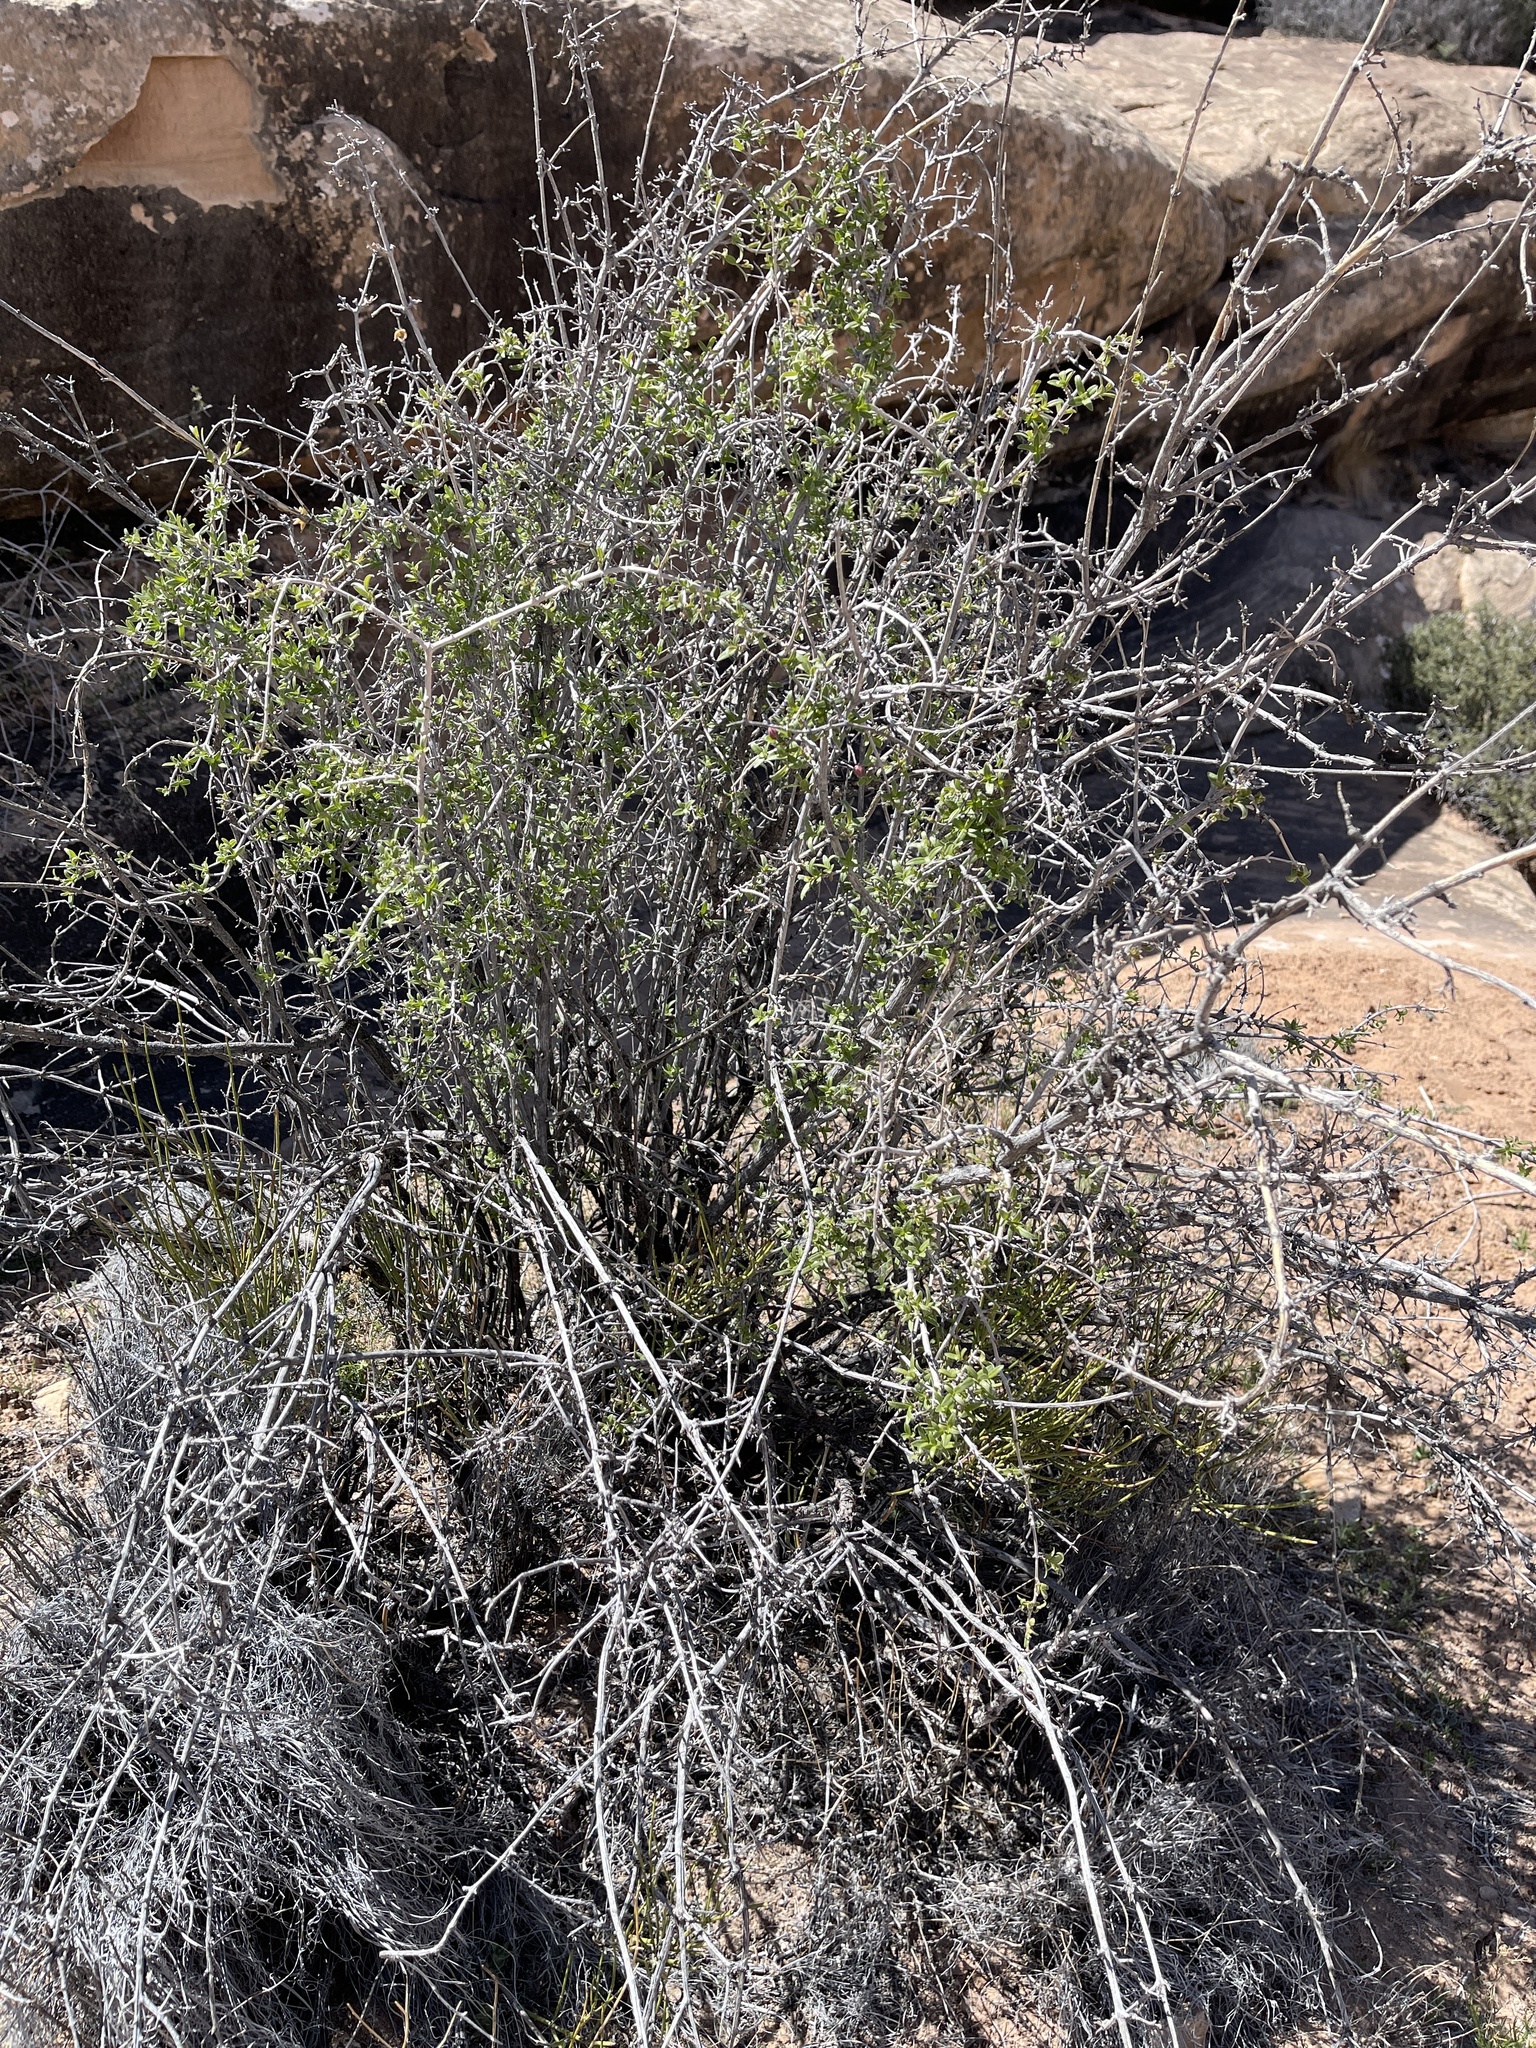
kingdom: Plantae
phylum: Tracheophyta
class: Magnoliopsida
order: Cornales
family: Hydrangeaceae
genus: Fendlera
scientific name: Fendlera rupicola
